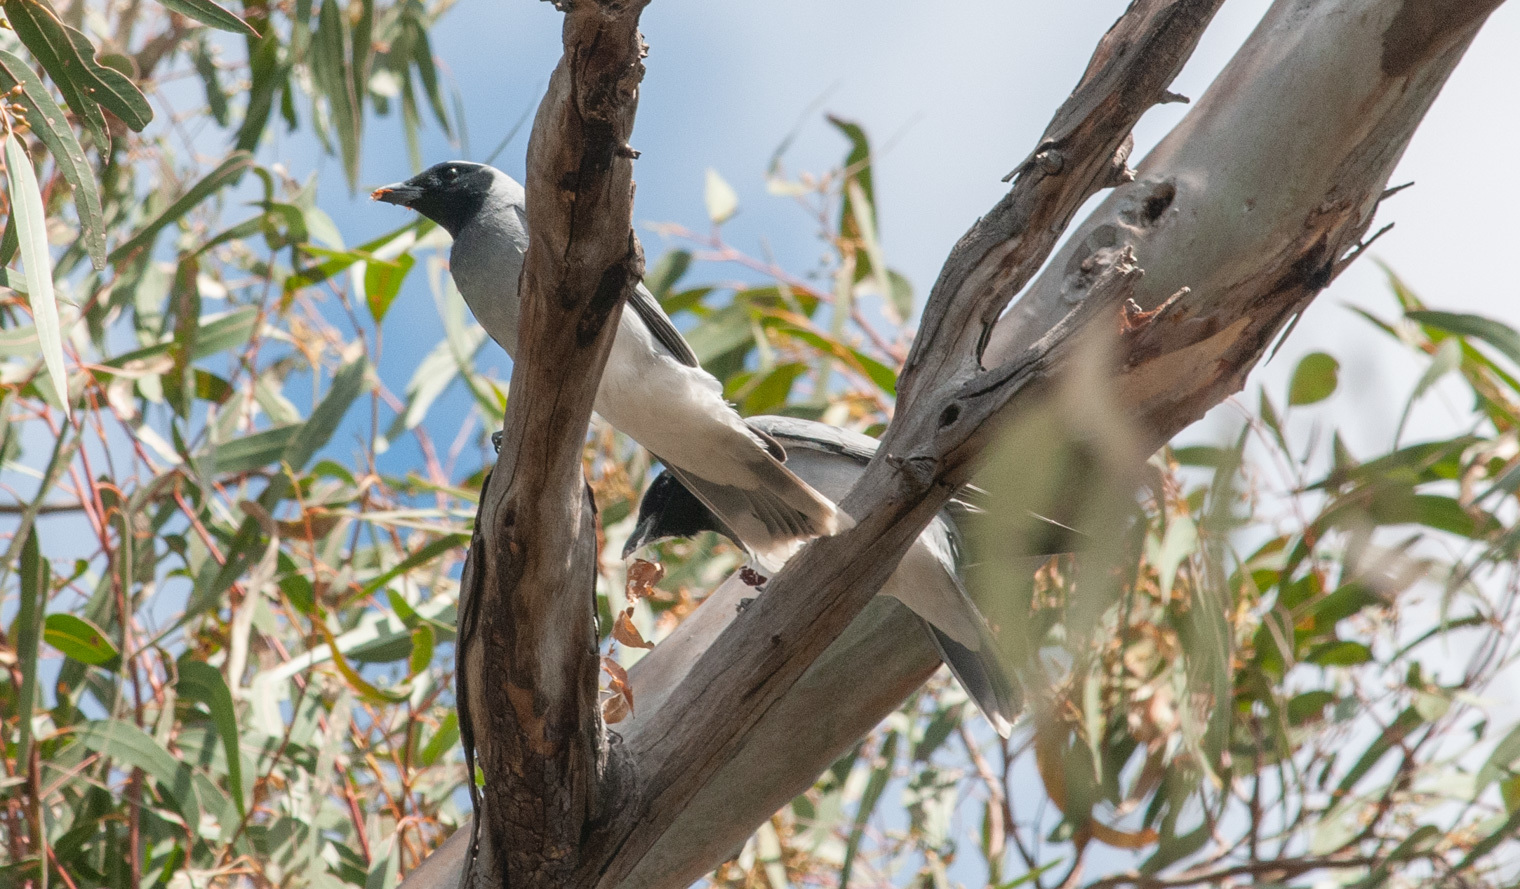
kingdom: Animalia
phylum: Chordata
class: Aves
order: Passeriformes
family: Campephagidae
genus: Coracina
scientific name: Coracina novaehollandiae
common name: Black-faced cuckooshrike
